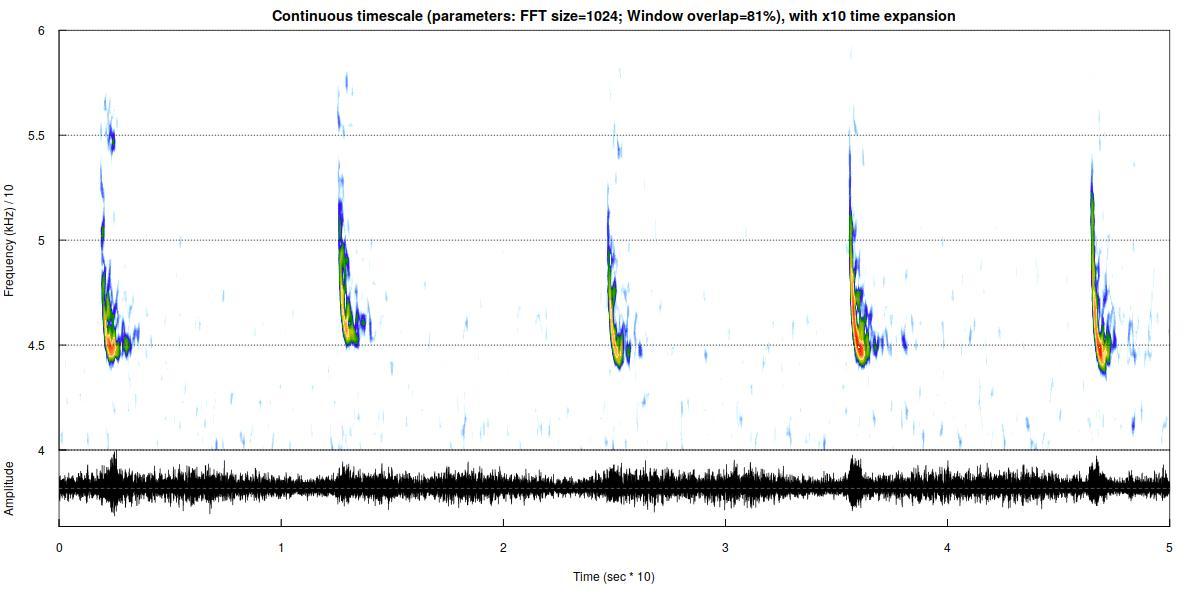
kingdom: Animalia
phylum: Chordata
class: Mammalia
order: Chiroptera
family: Vespertilionidae
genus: Pipistrellus
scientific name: Pipistrellus pipistrellus
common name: Common pipistrelle
